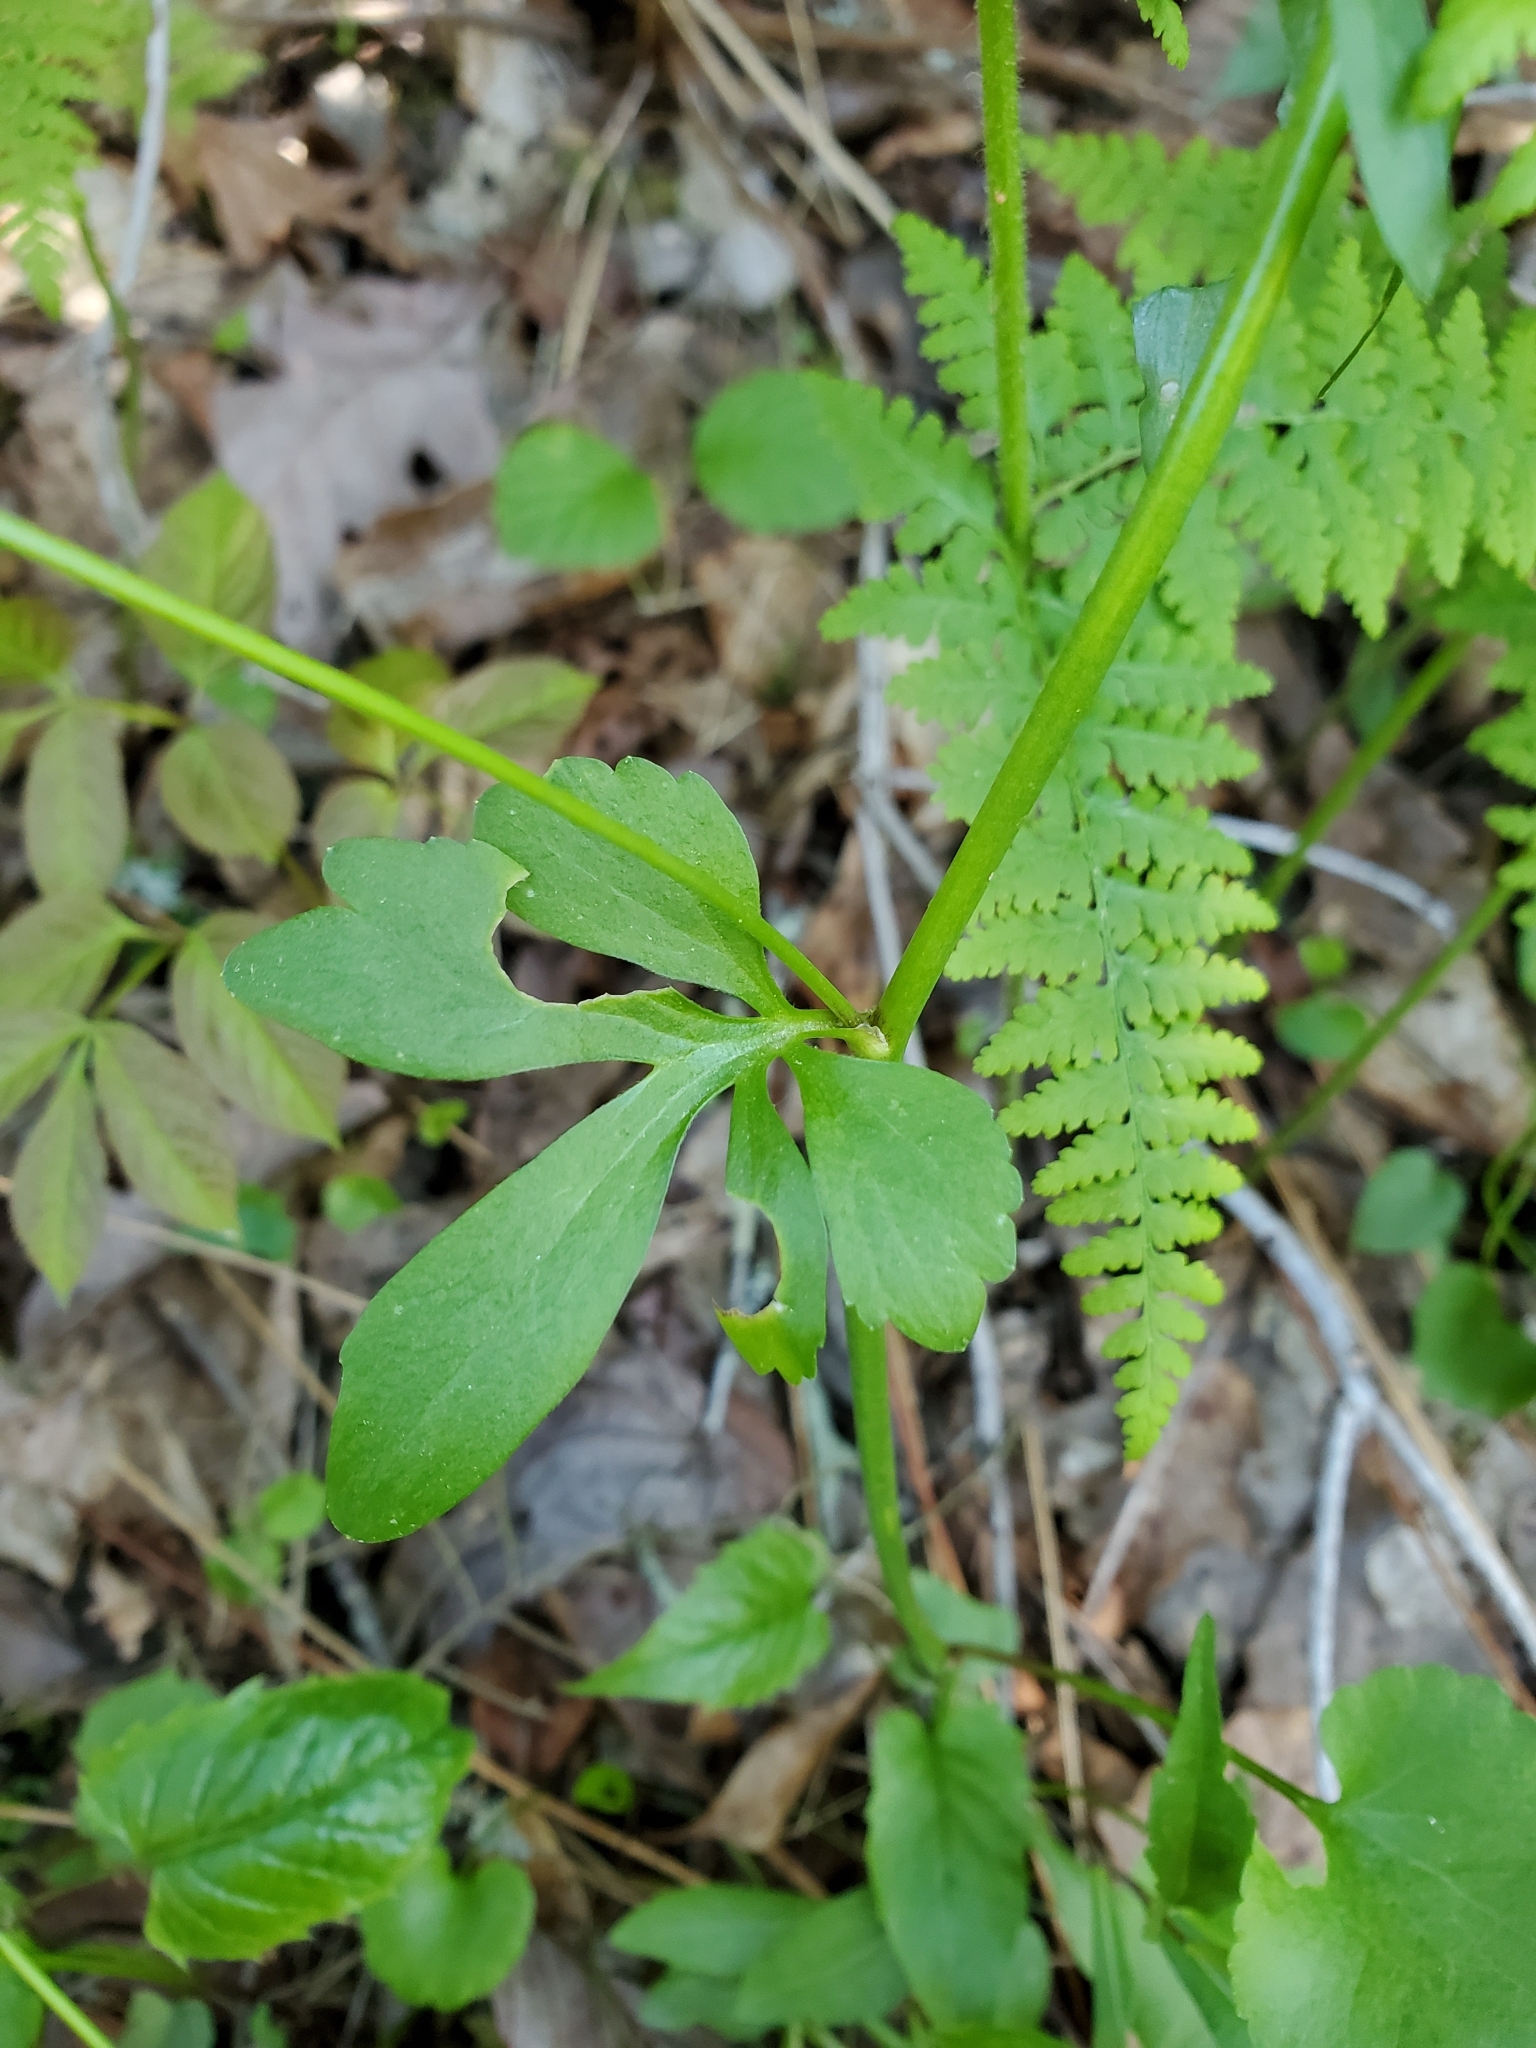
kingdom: Plantae
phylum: Tracheophyta
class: Magnoliopsida
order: Ranunculales
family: Ranunculaceae
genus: Ranunculus
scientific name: Ranunculus abortivus
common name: Early wood buttercup
